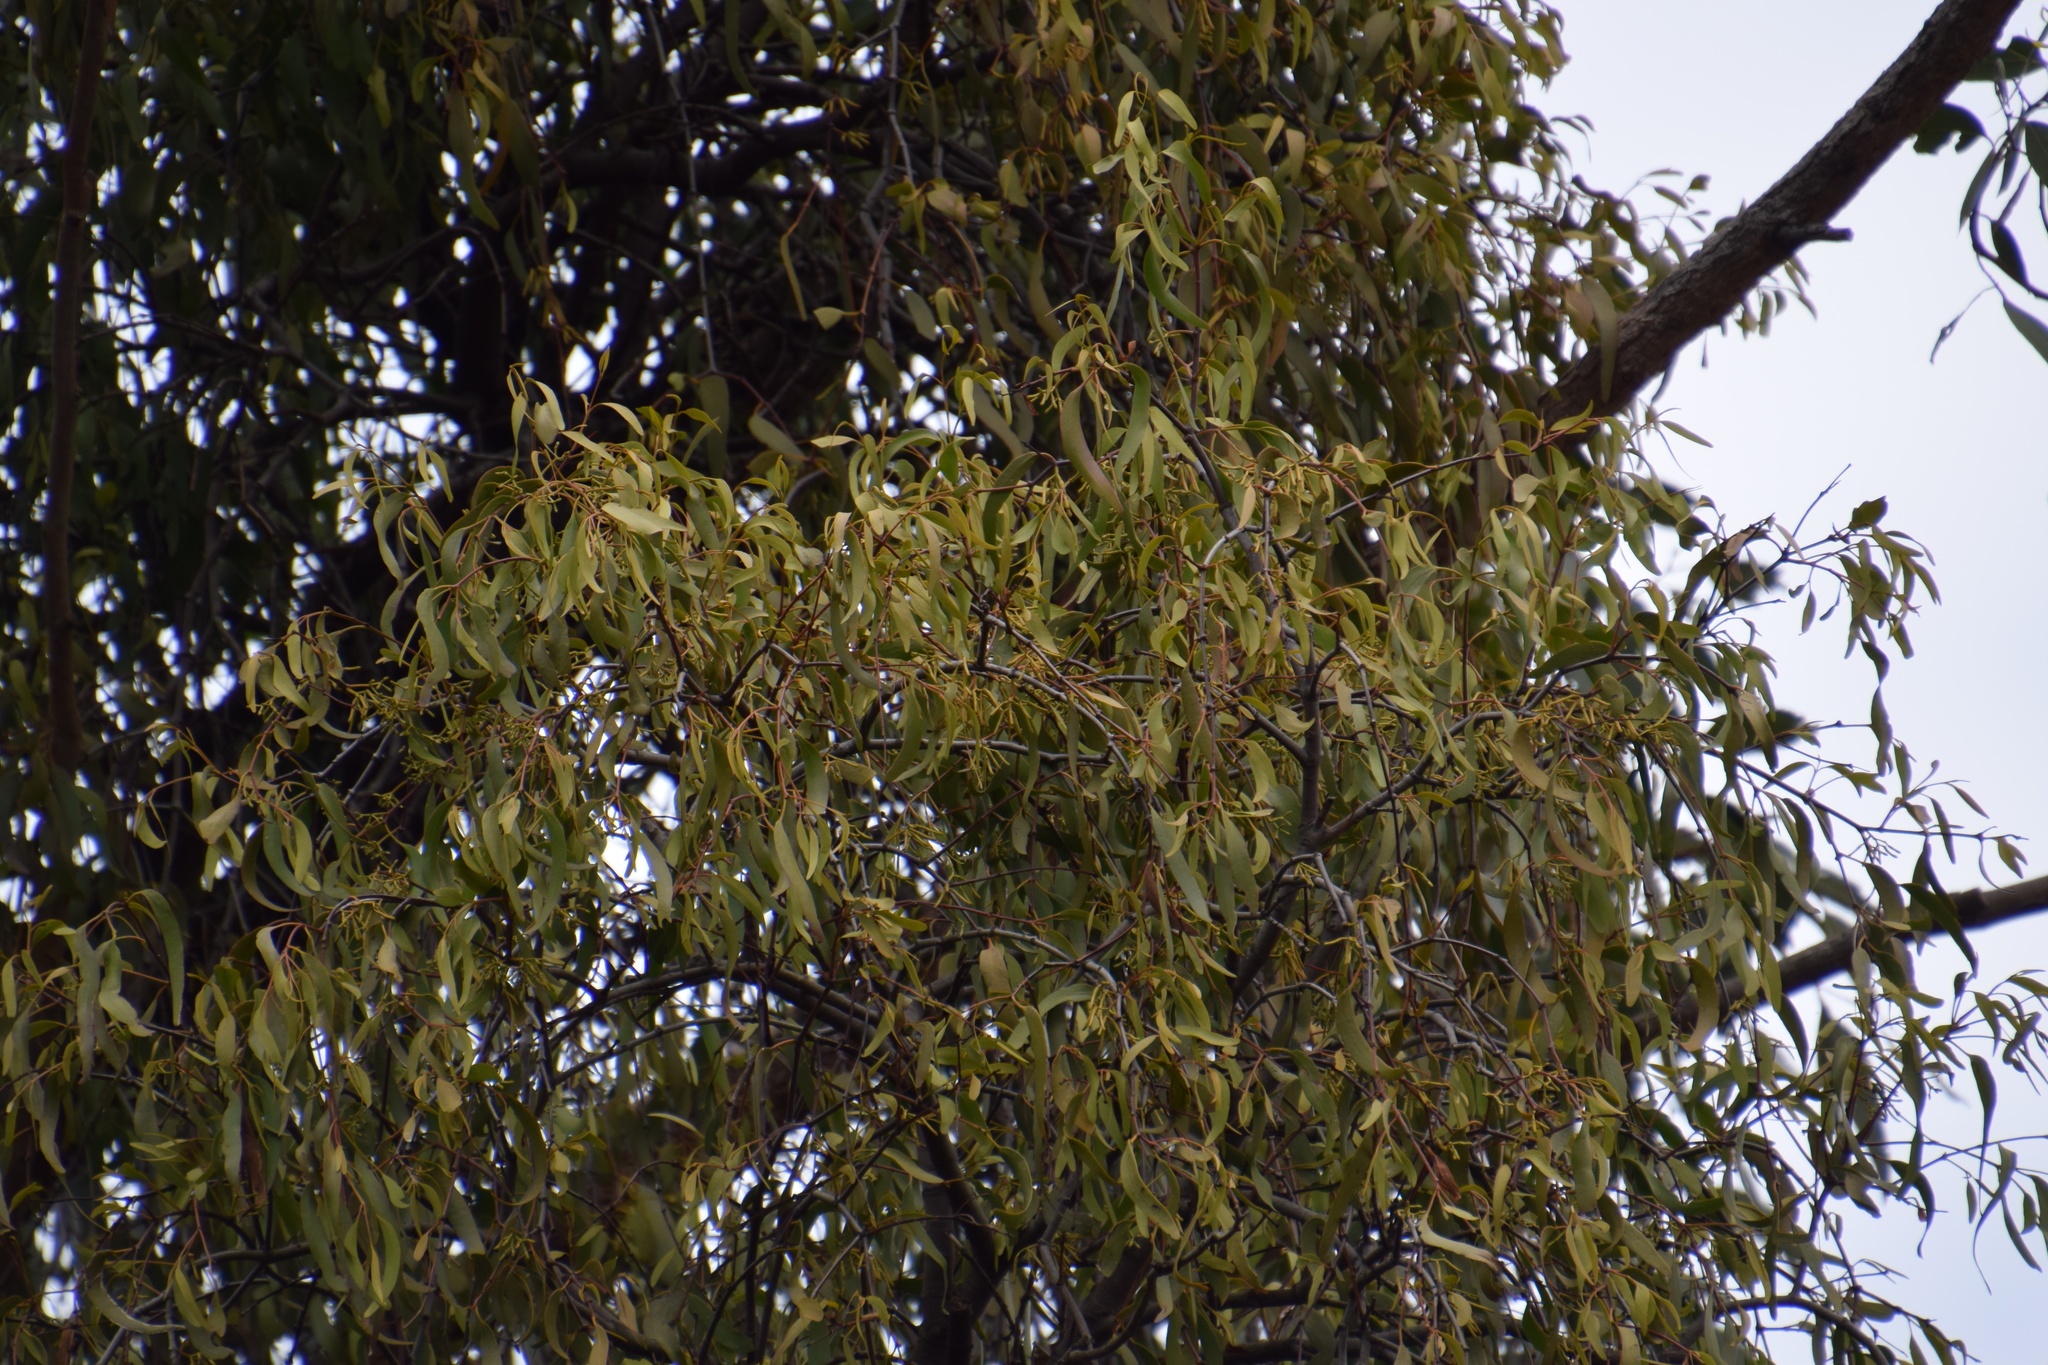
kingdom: Plantae
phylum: Tracheophyta
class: Magnoliopsida
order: Santalales
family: Loranthaceae
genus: Amyema
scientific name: Amyema miquelii
